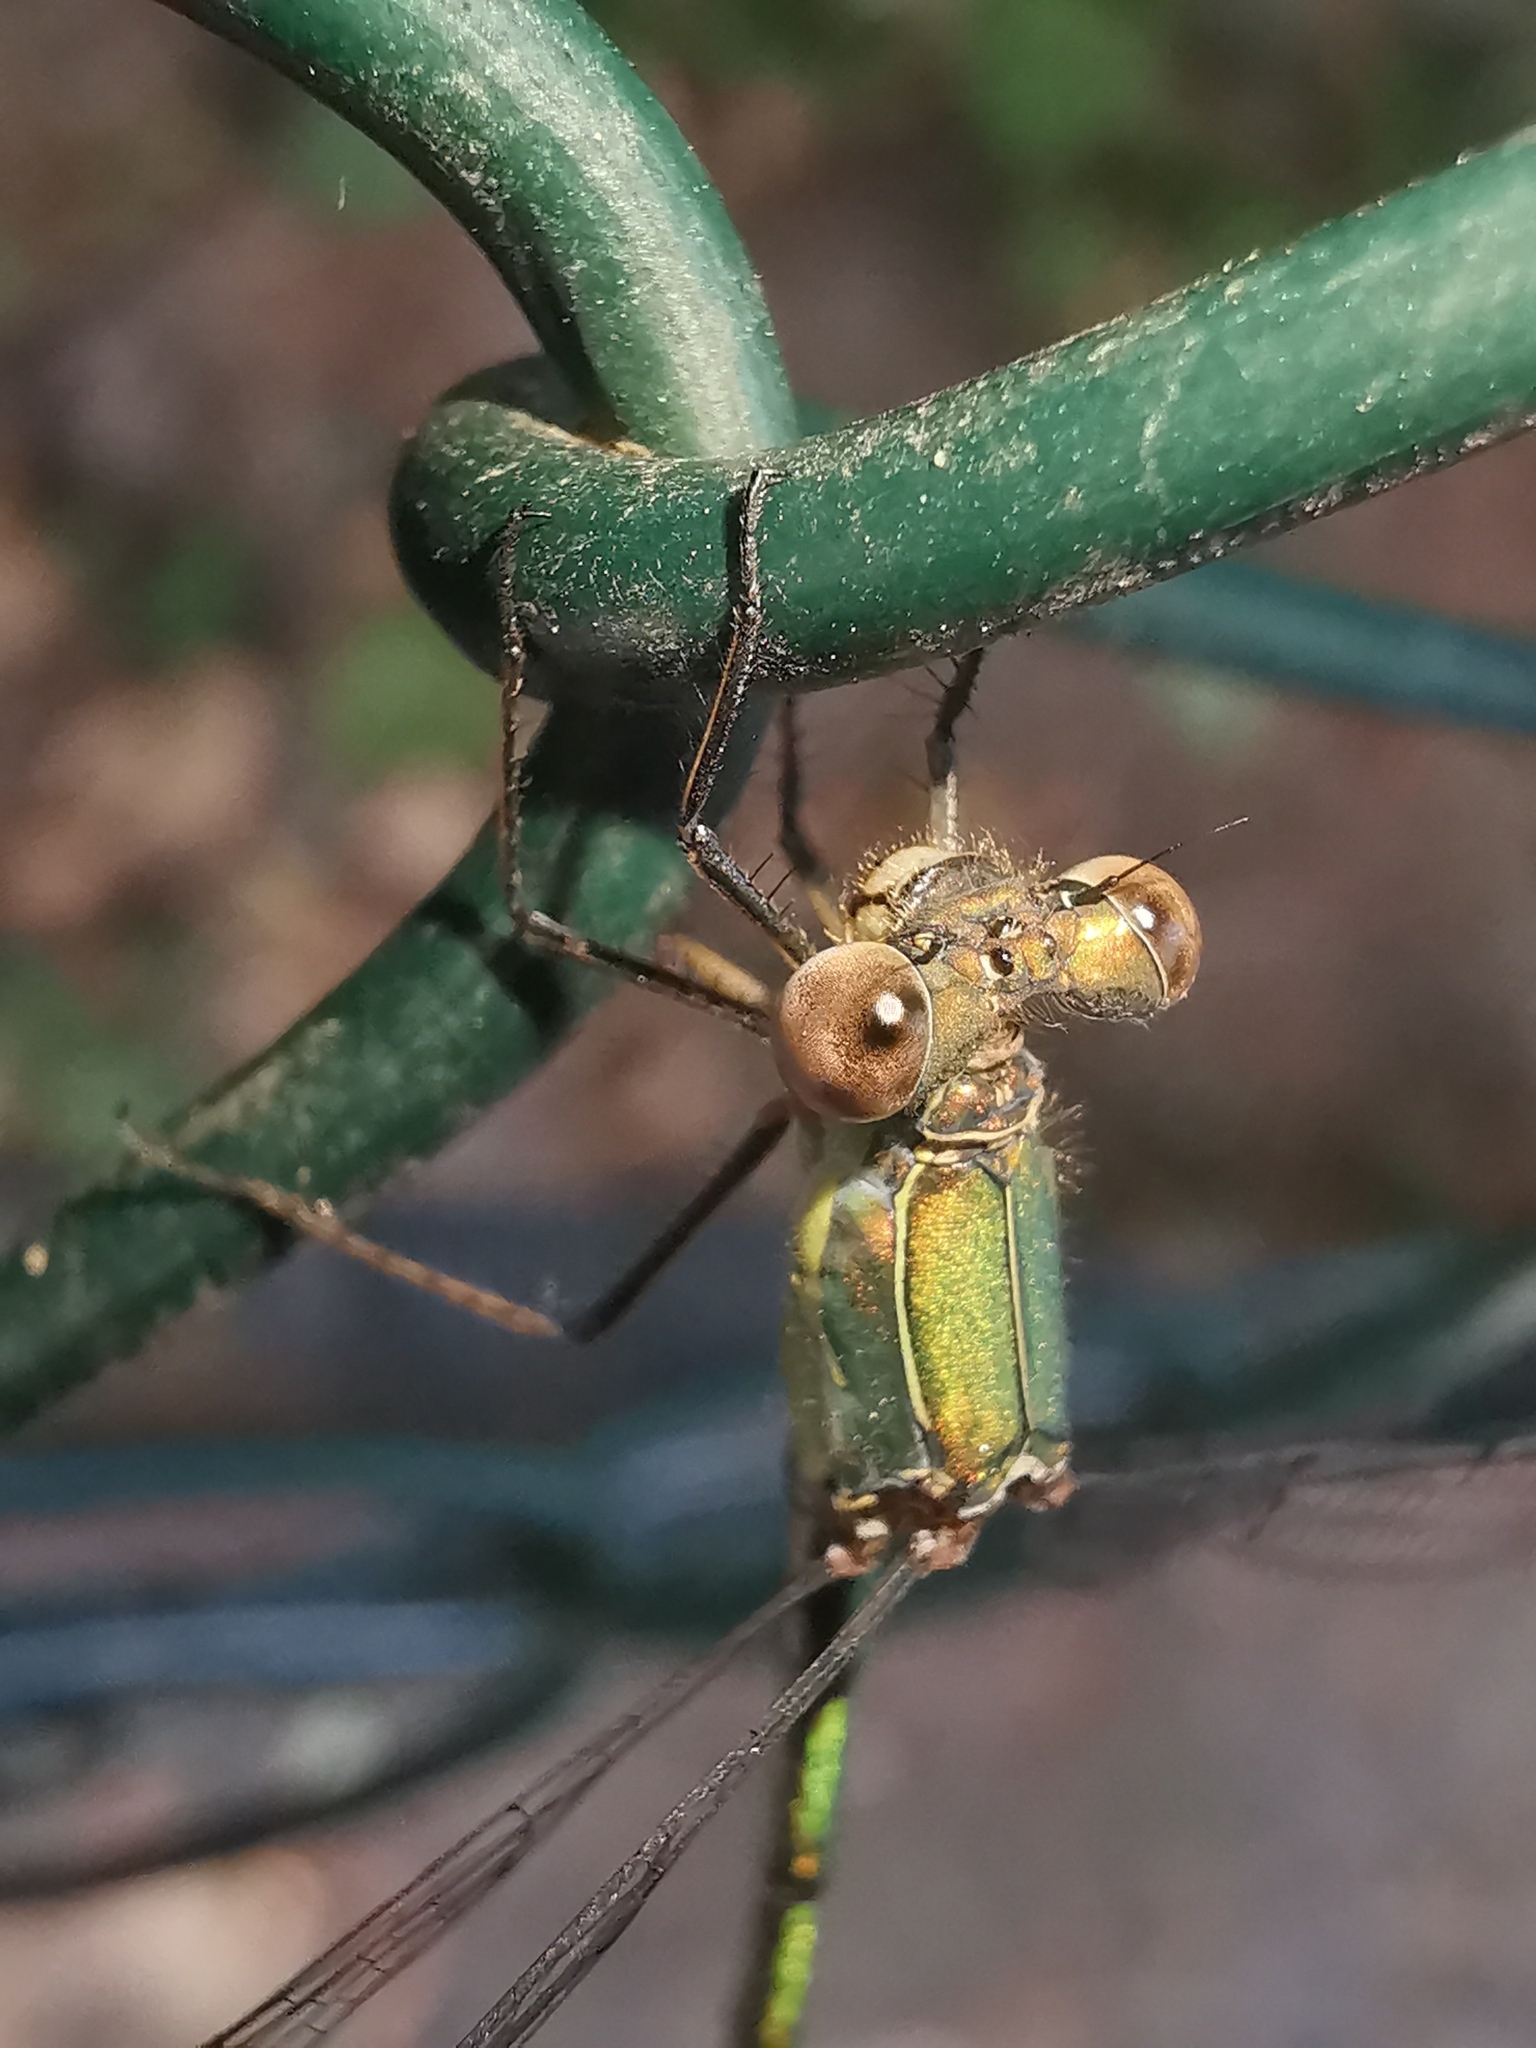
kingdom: Animalia
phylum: Arthropoda
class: Insecta
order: Odonata
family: Lestidae
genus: Chalcolestes
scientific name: Chalcolestes viridis
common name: Green emerald damselfly
